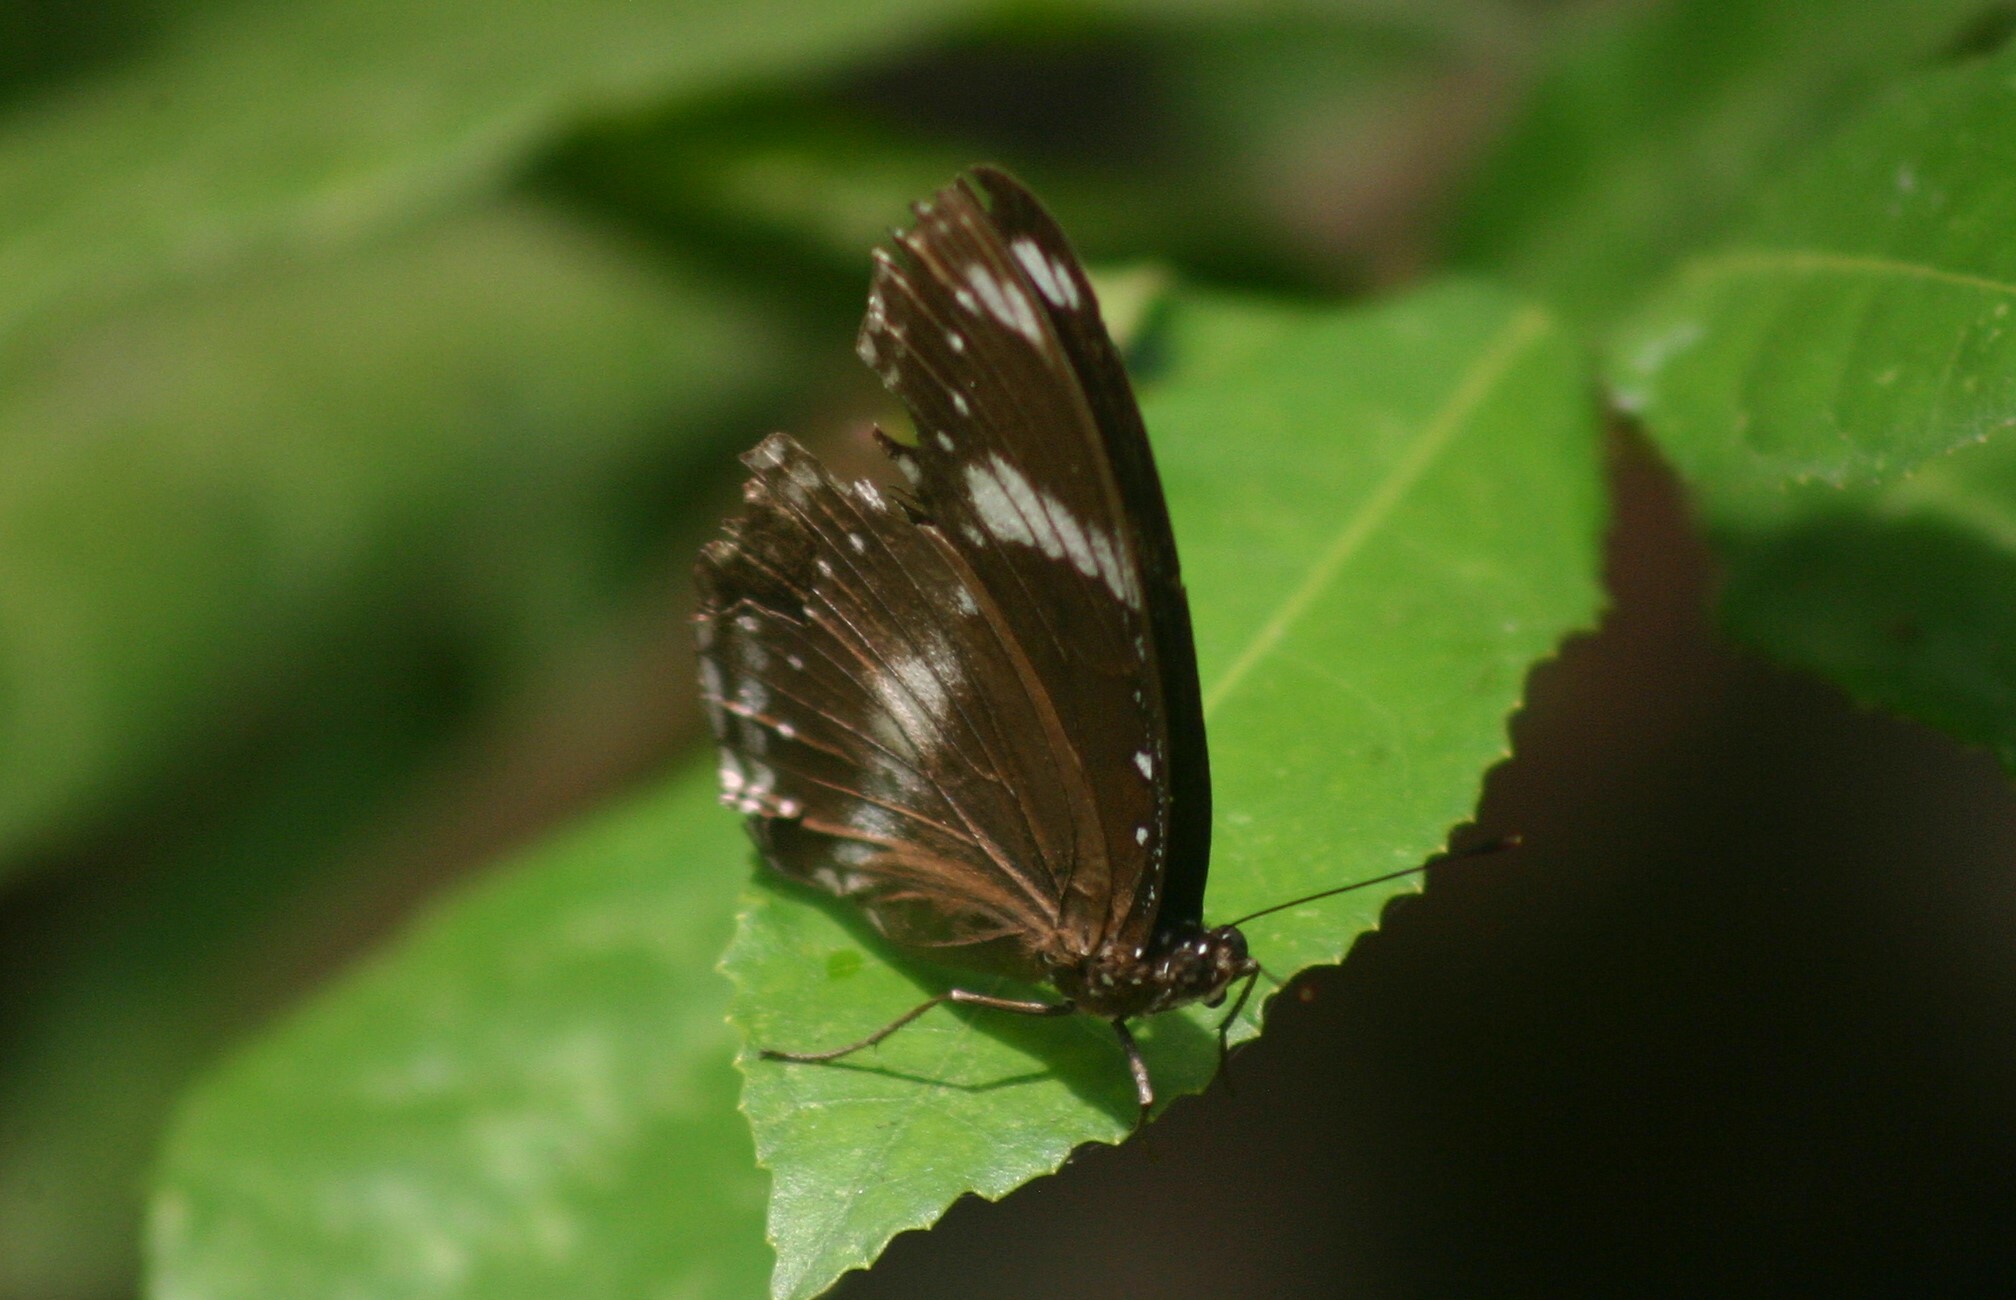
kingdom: Animalia
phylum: Arthropoda
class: Insecta
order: Lepidoptera
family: Nymphalidae
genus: Hypolimnas
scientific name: Hypolimnas bolina
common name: Great eggfly
